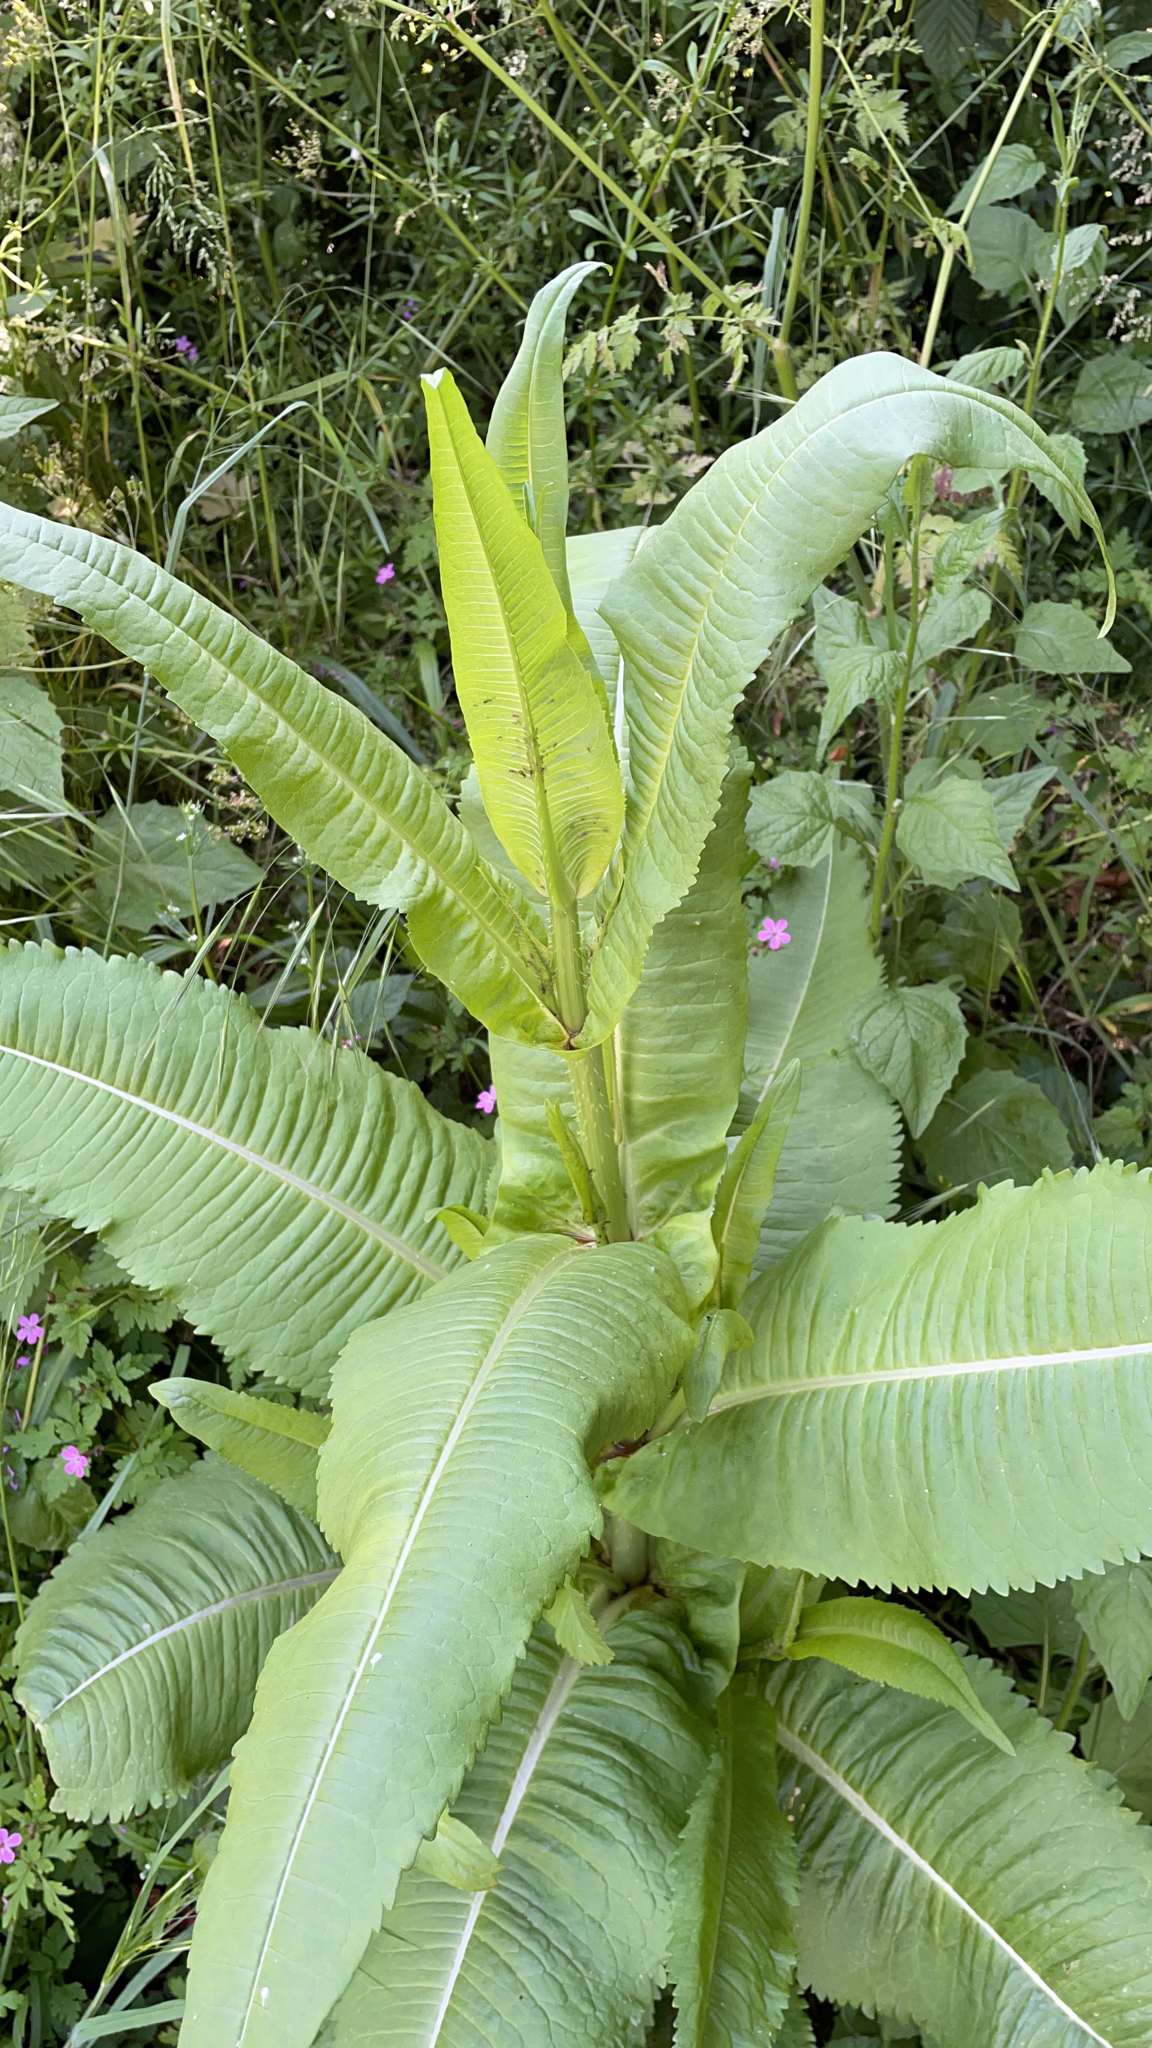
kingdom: Plantae
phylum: Tracheophyta
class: Magnoliopsida
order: Dipsacales
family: Caprifoliaceae
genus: Dipsacus
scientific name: Dipsacus fullonum
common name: Teasel
